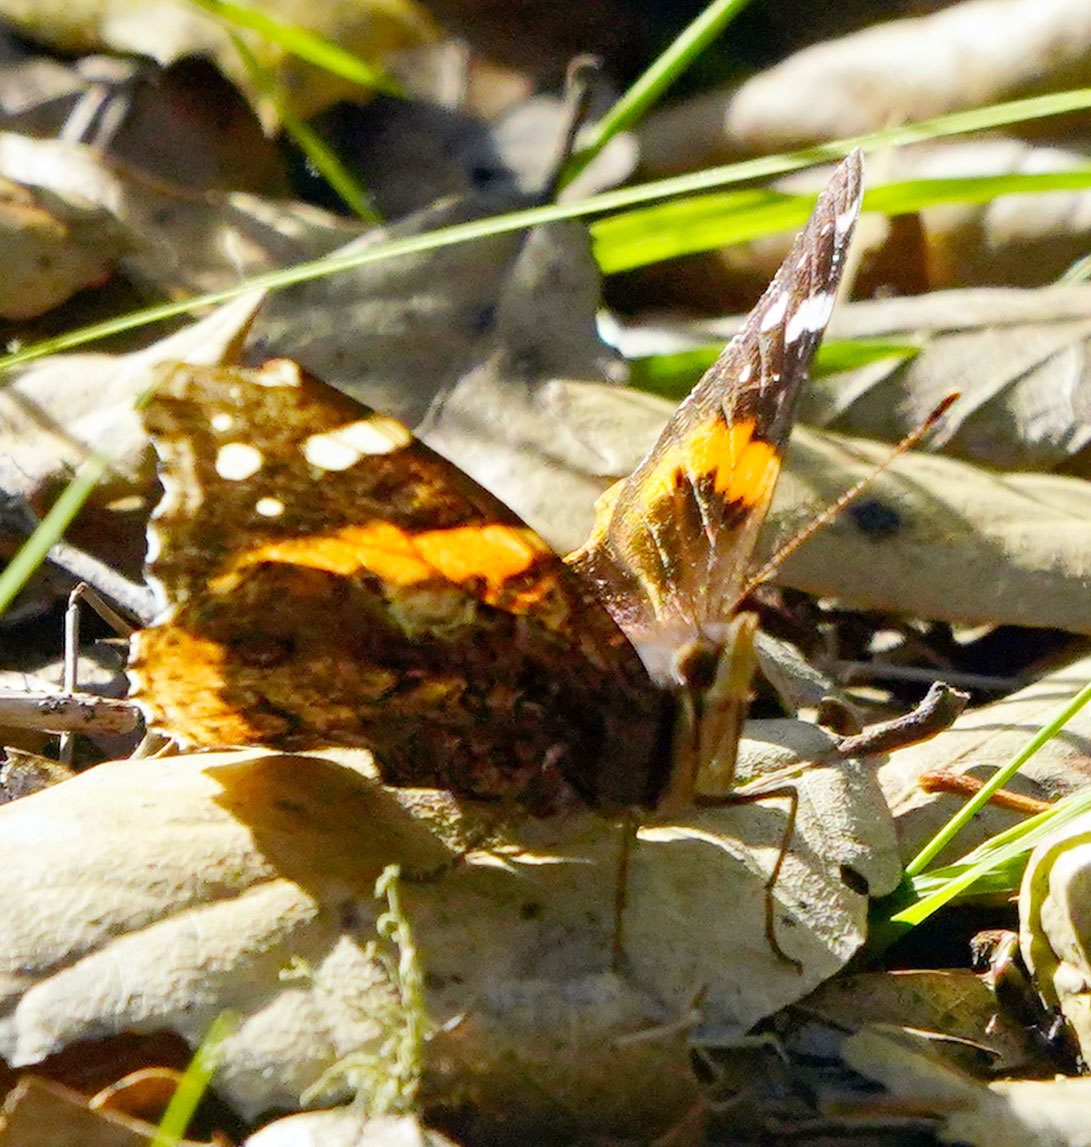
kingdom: Animalia
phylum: Arthropoda
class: Insecta
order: Lepidoptera
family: Nymphalidae
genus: Vanessa
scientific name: Vanessa atalanta
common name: Red admiral
